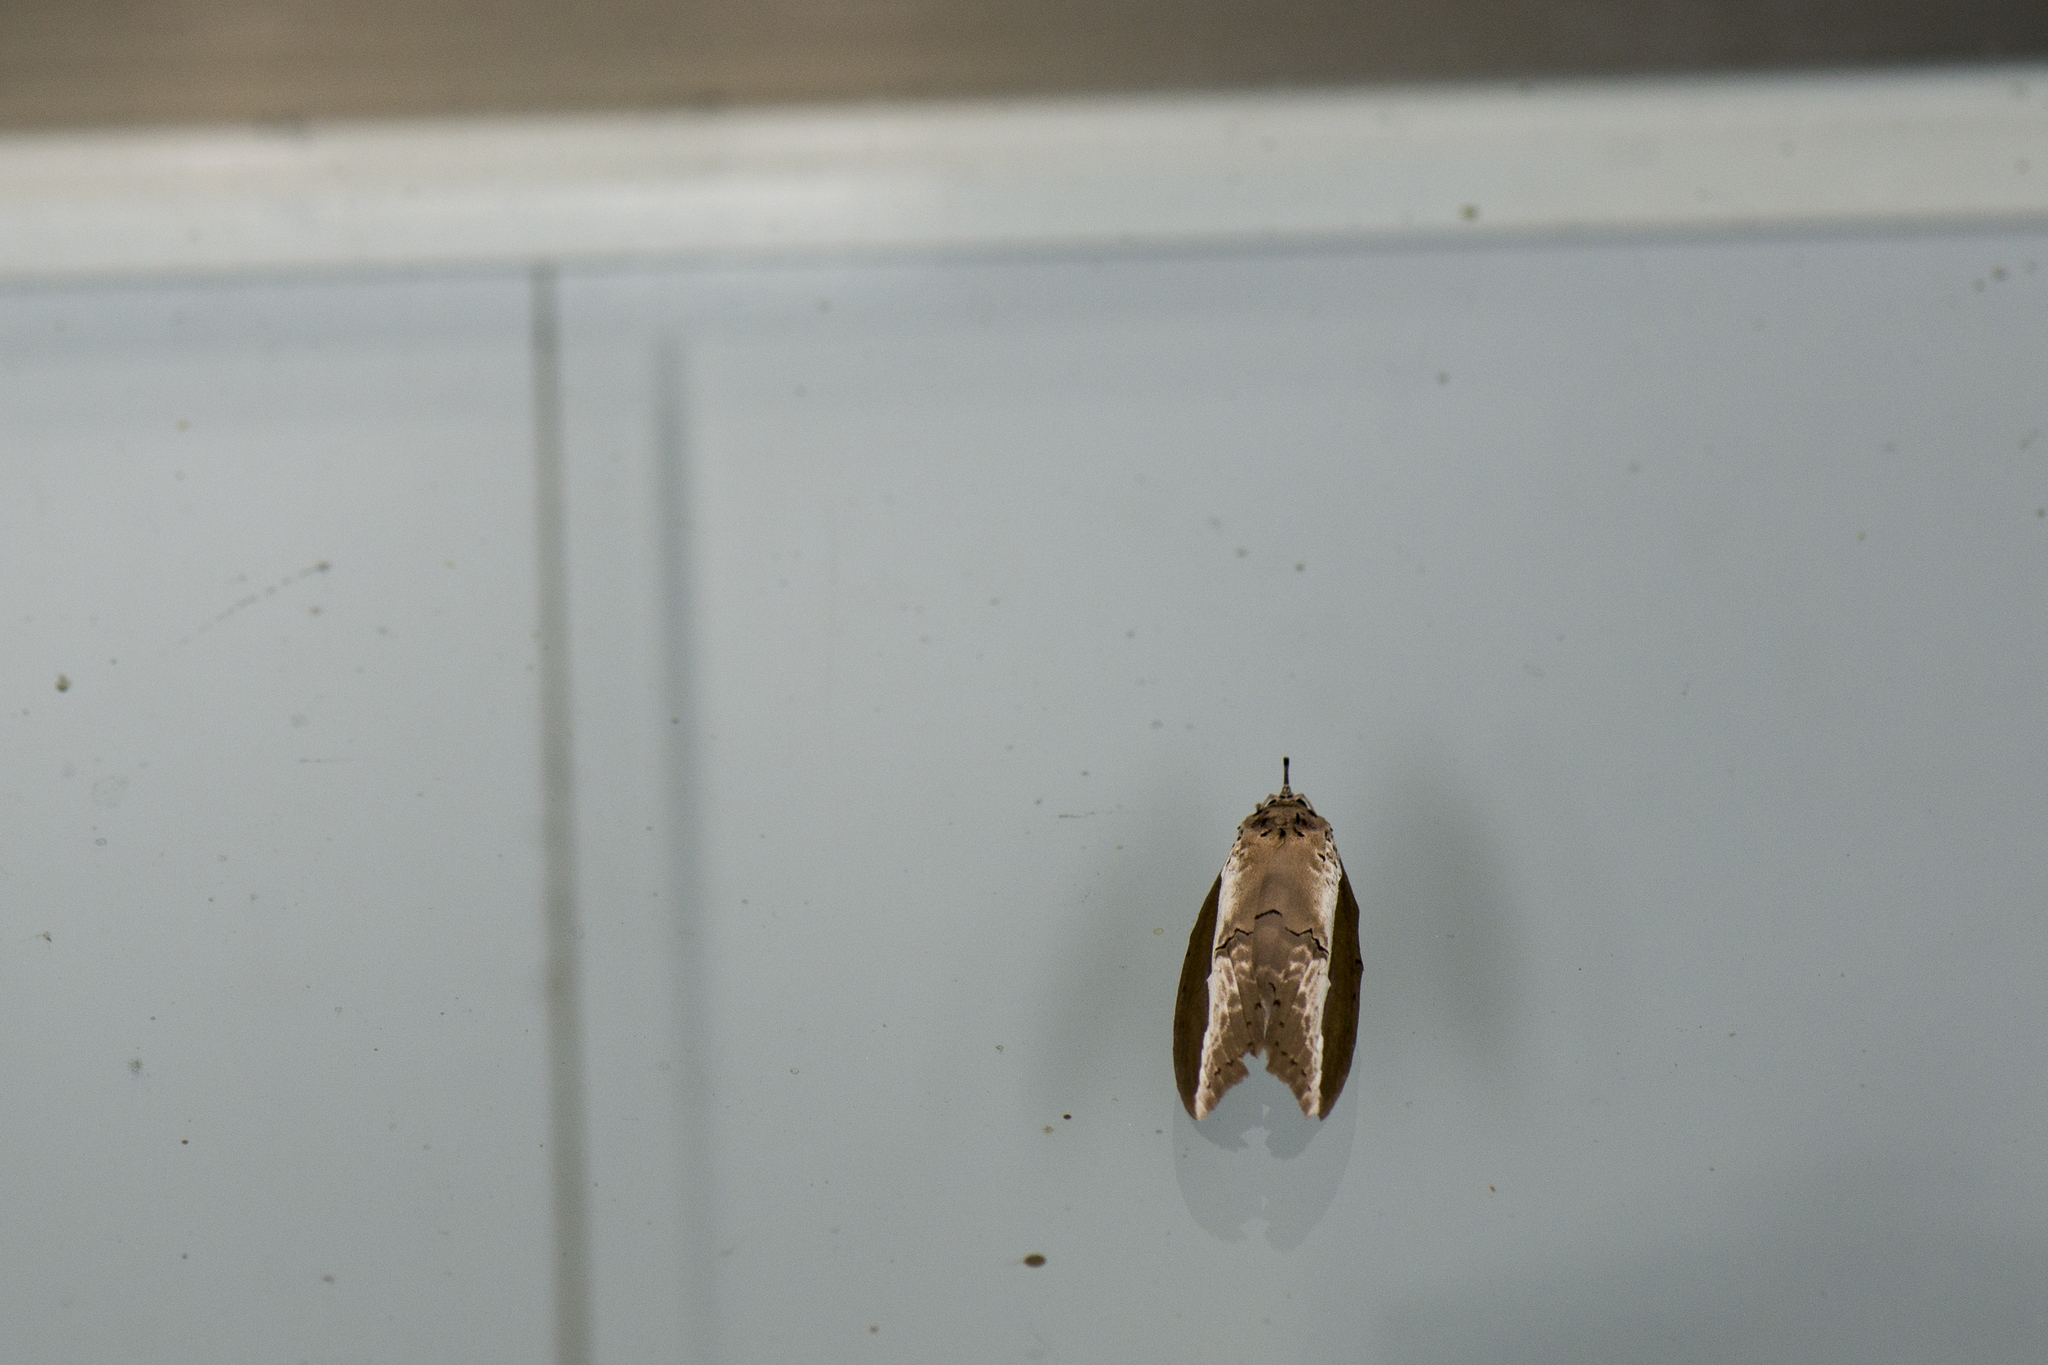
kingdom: Animalia
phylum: Arthropoda
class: Insecta
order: Lepidoptera
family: Nolidae
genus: Eligma
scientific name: Eligma narcissus
